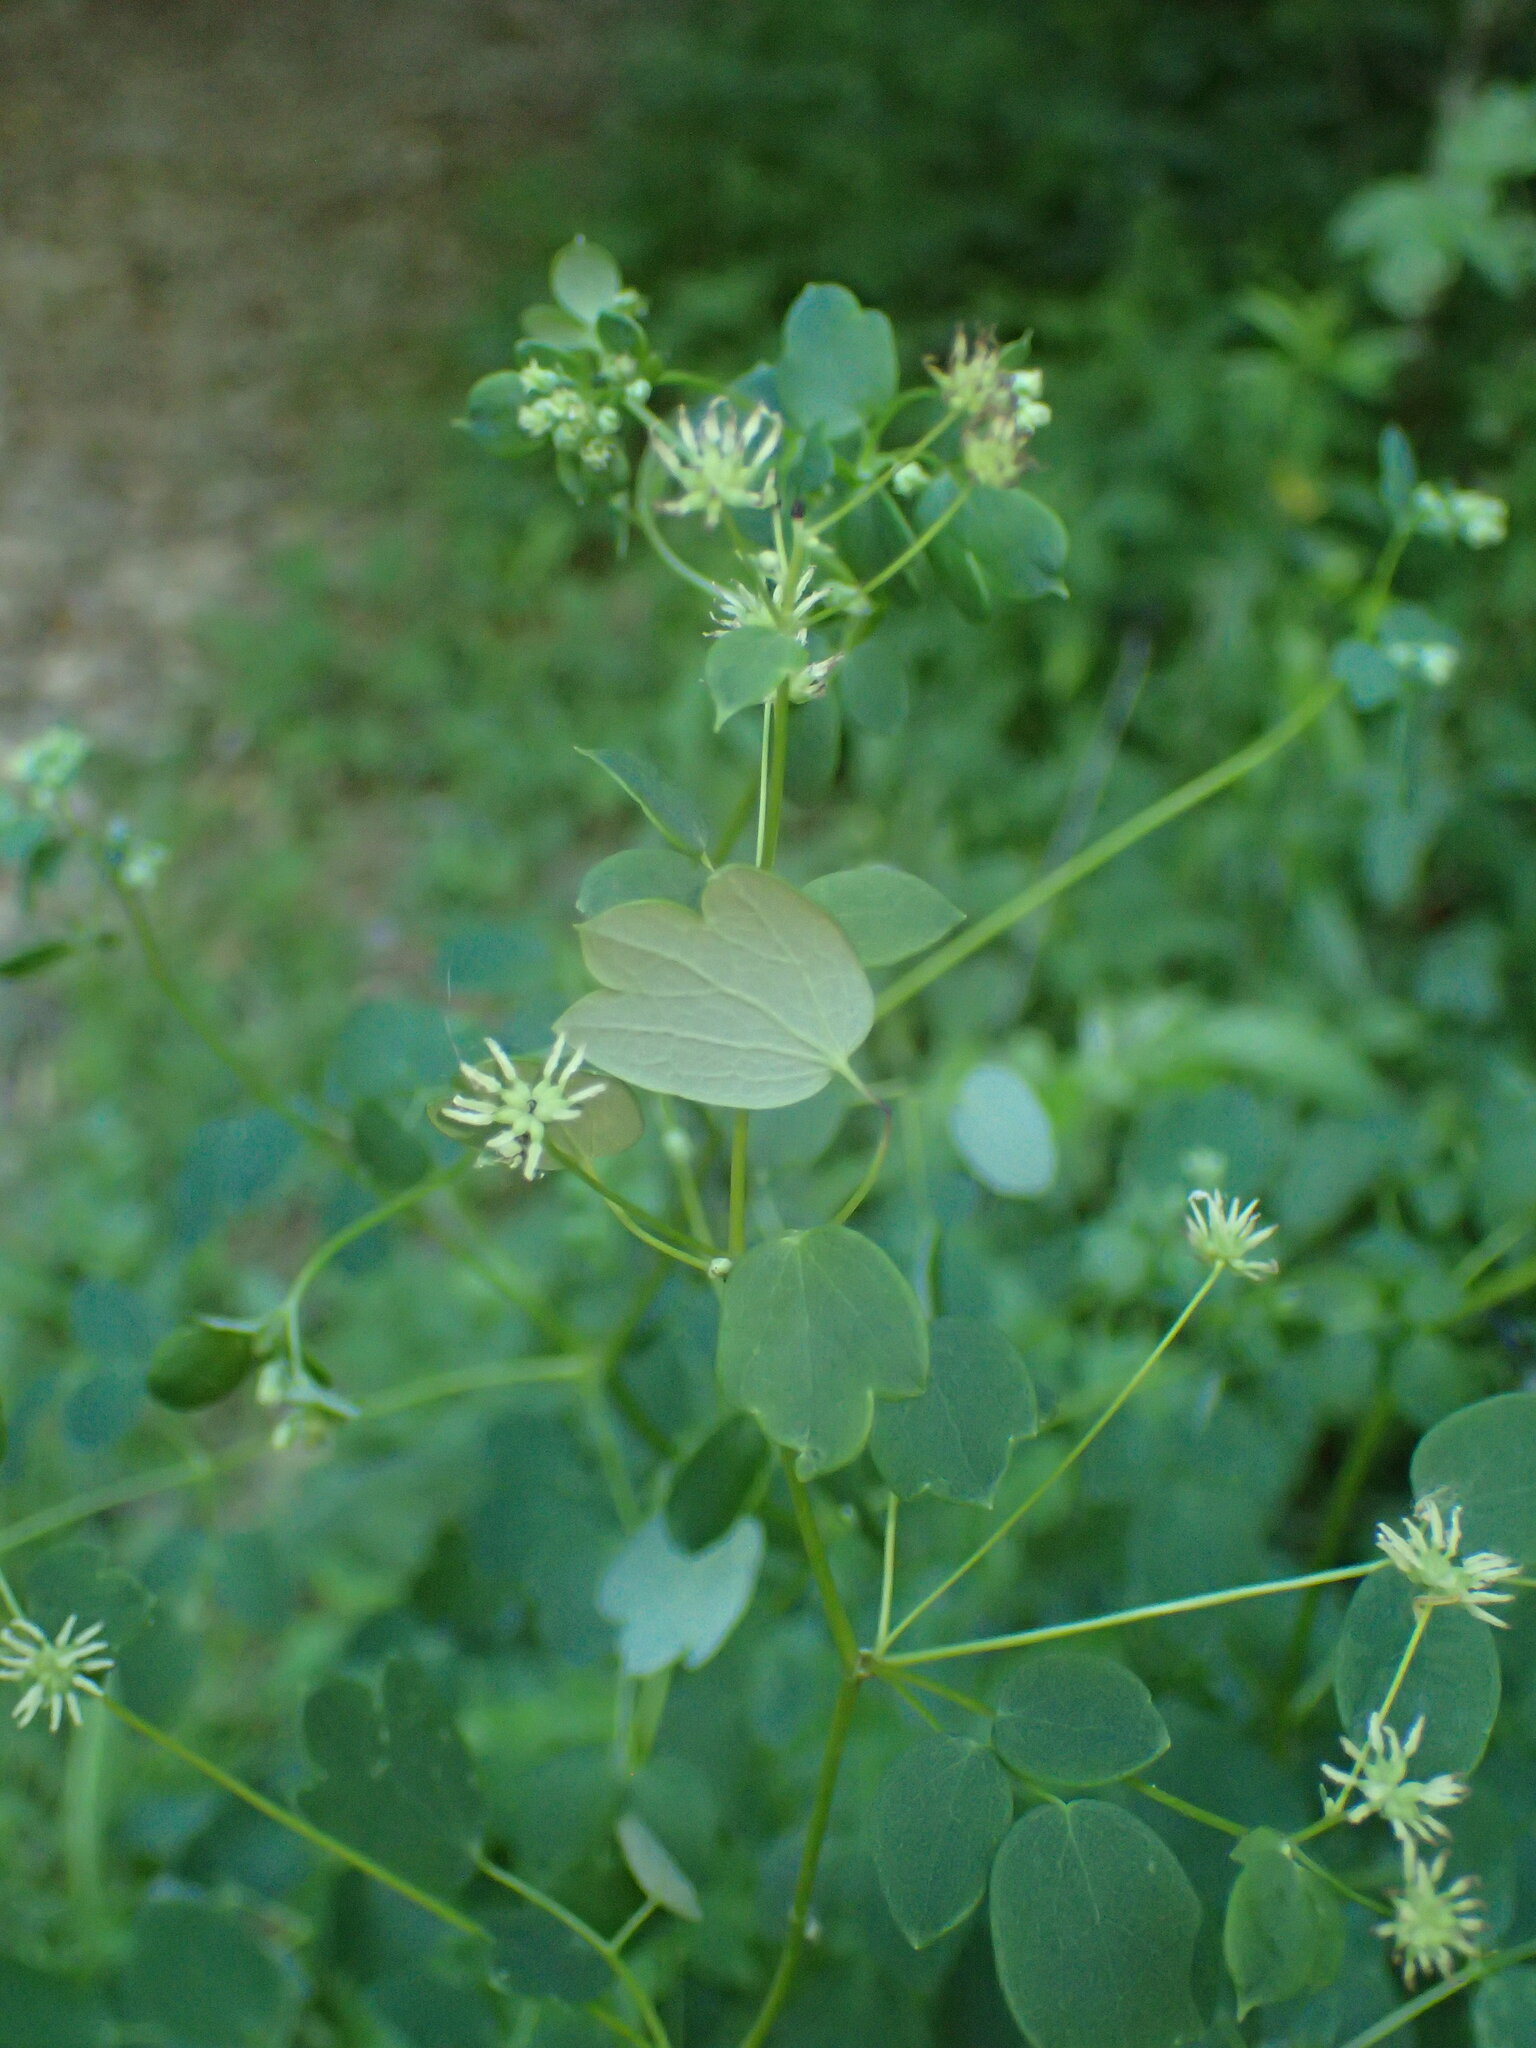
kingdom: Plantae
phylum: Tracheophyta
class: Magnoliopsida
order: Ranunculales
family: Ranunculaceae
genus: Thalictrum
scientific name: Thalictrum revolutum
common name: Waxy meadow-rue
